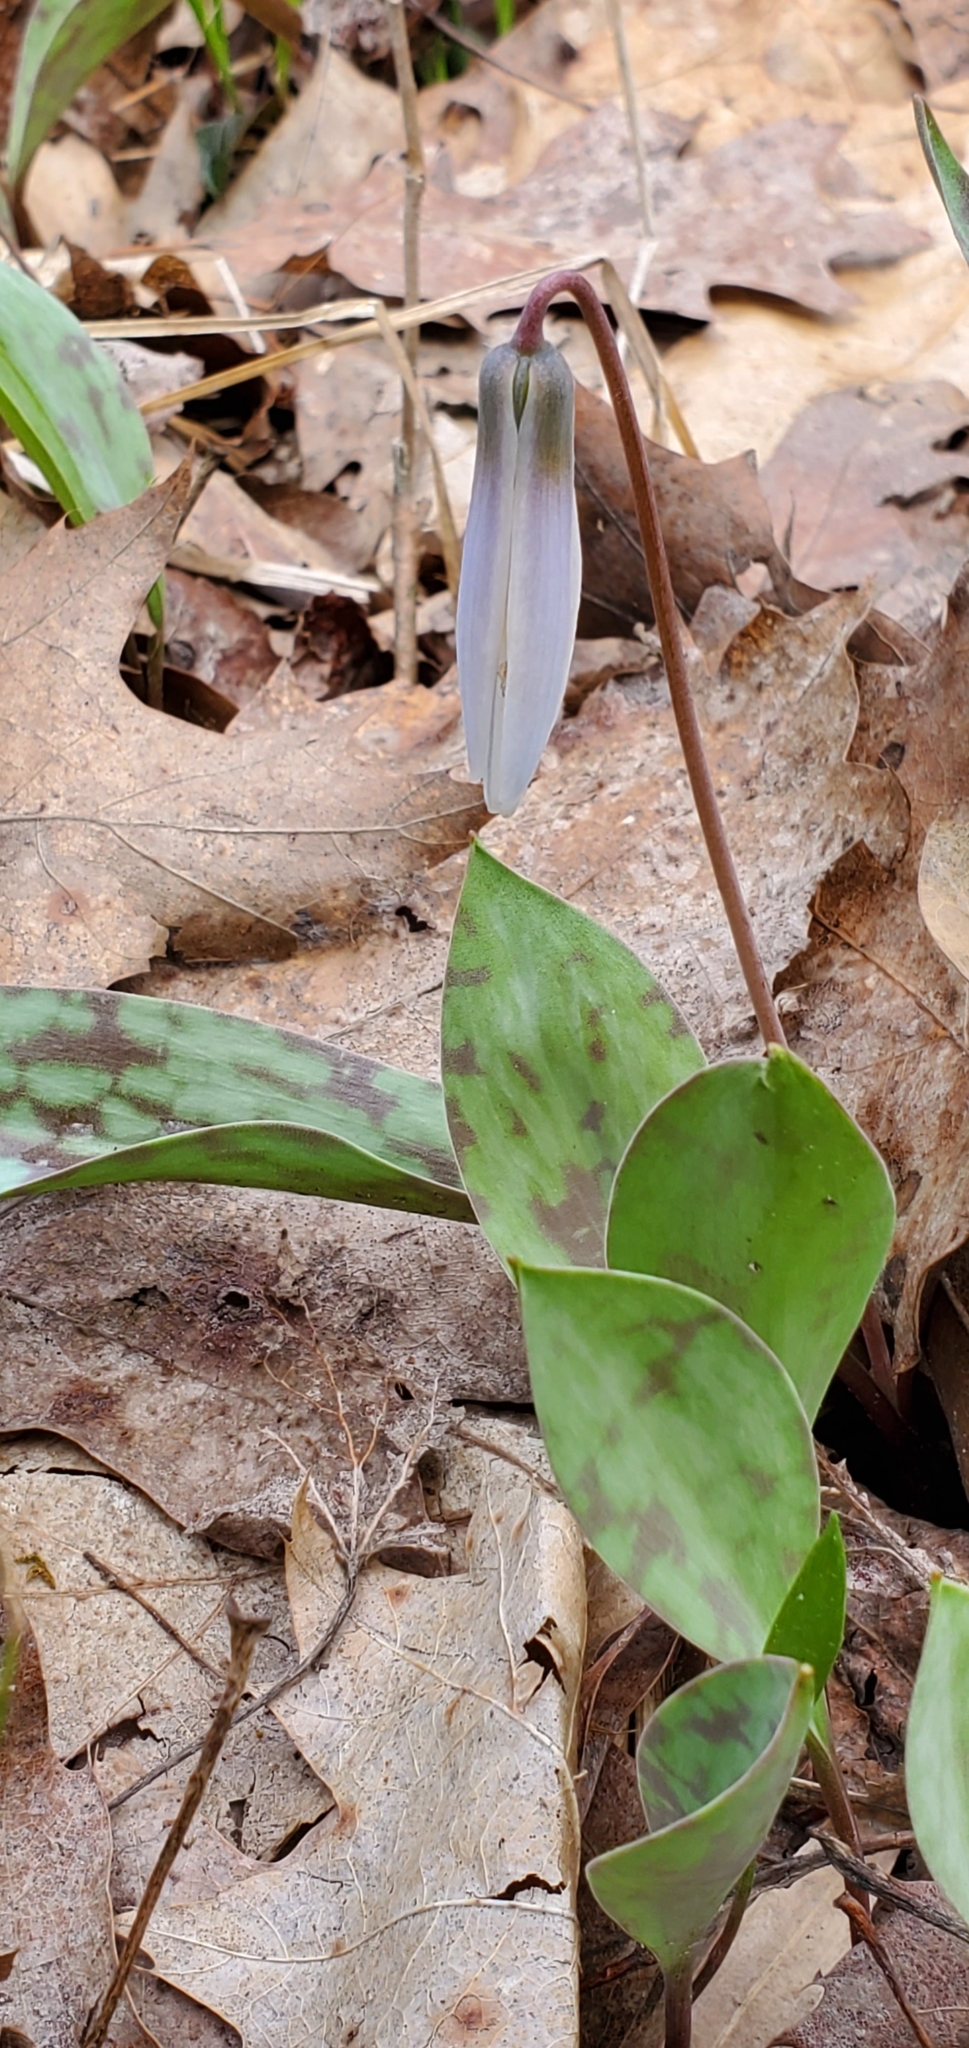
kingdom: Plantae
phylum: Tracheophyta
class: Liliopsida
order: Liliales
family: Liliaceae
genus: Erythronium
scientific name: Erythronium albidum
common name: White trout-lily
